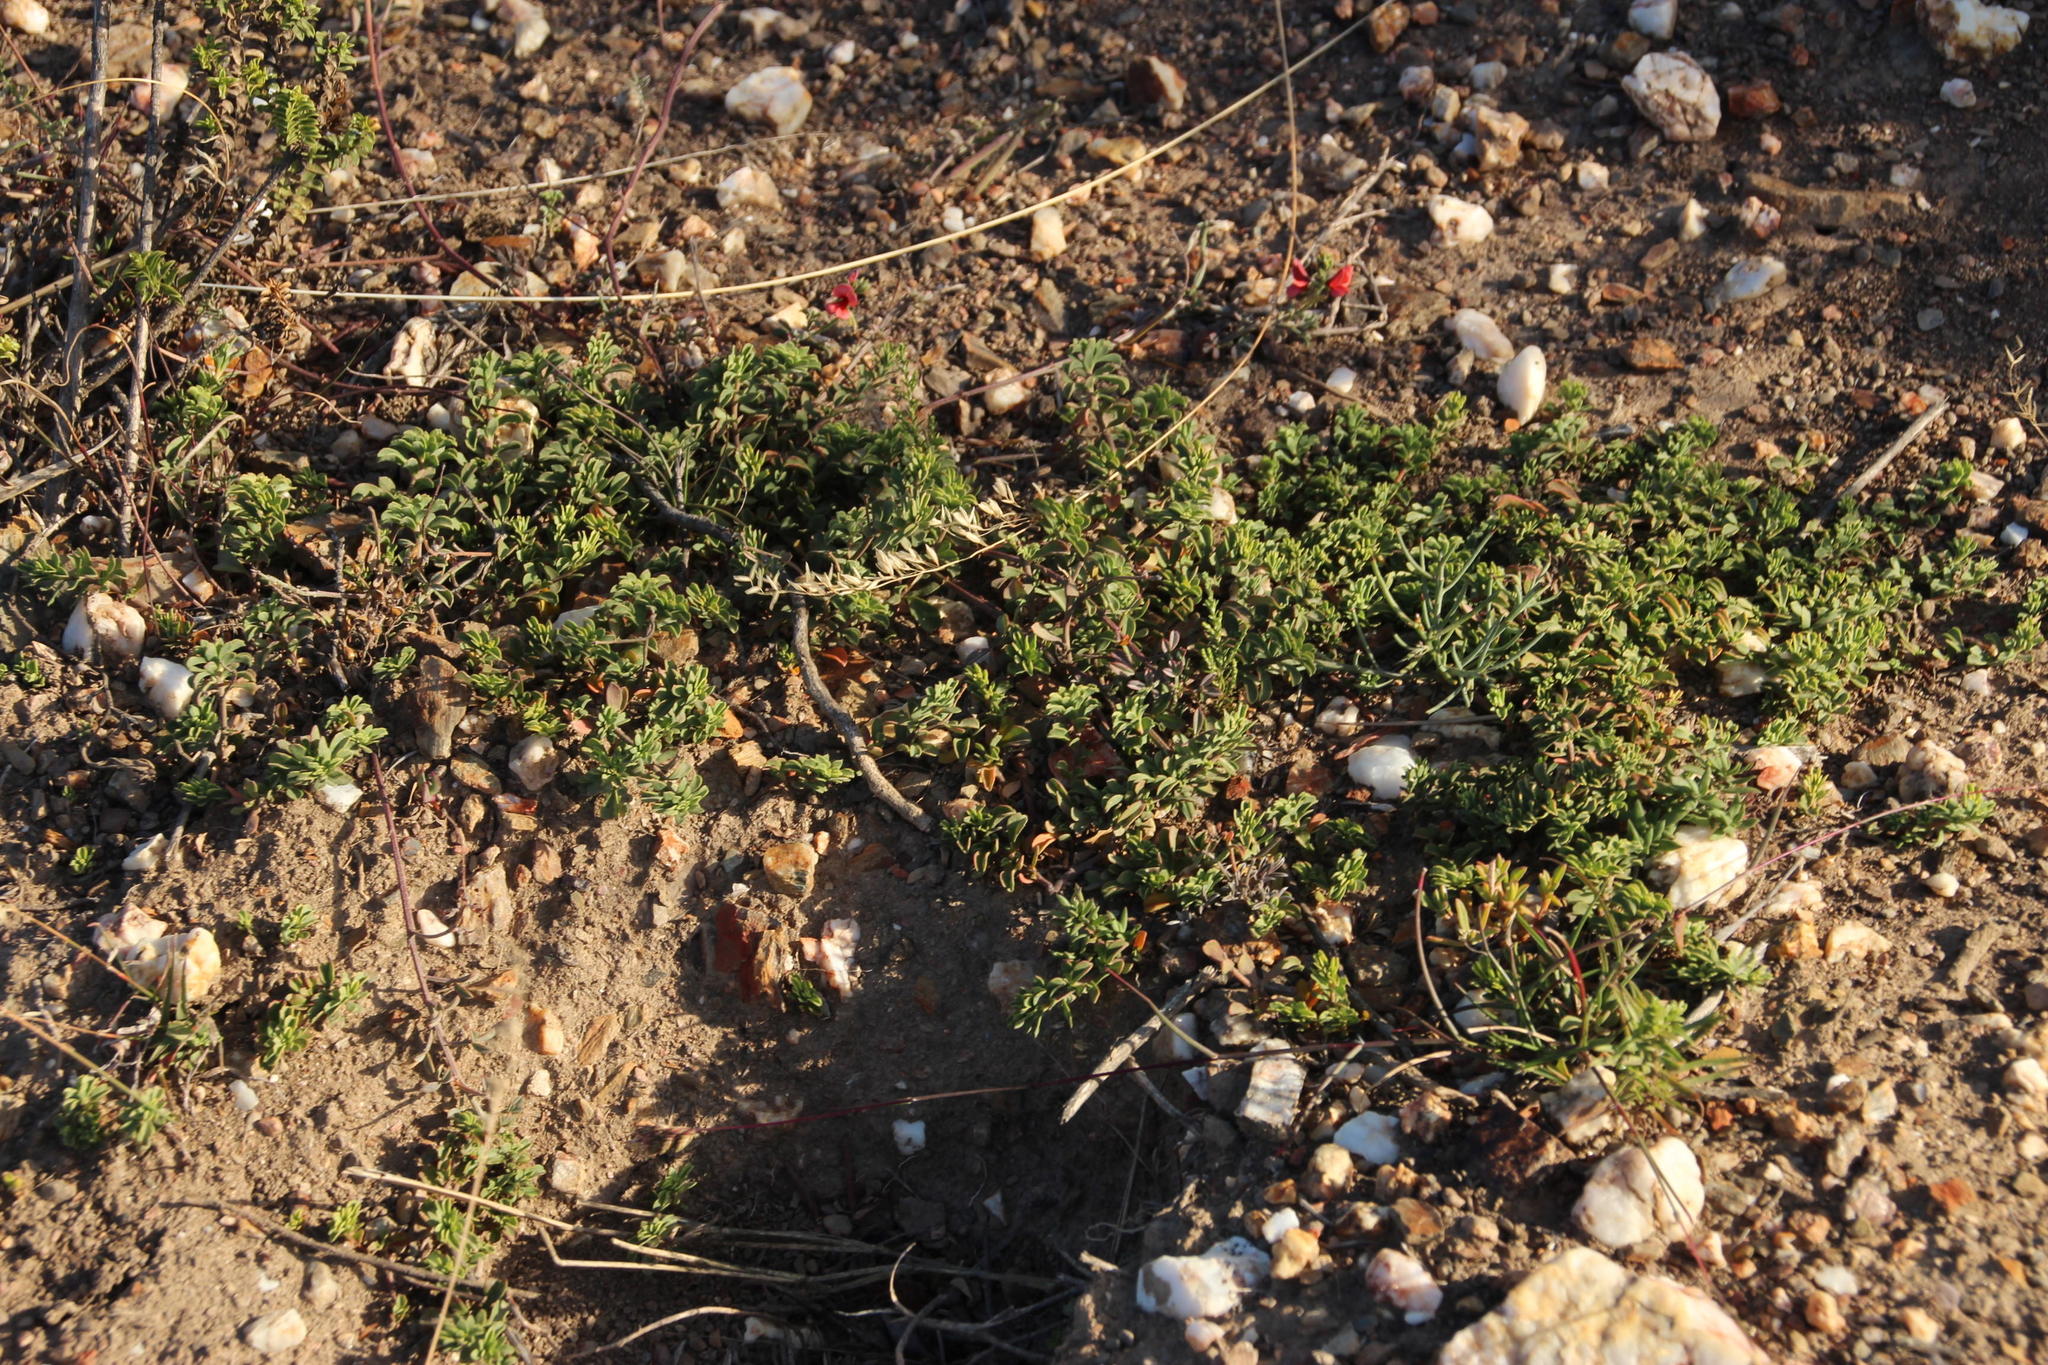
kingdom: Plantae
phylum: Tracheophyta
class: Magnoliopsida
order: Fabales
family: Fabaceae
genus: Indigofera
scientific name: Indigofera heterophylla
